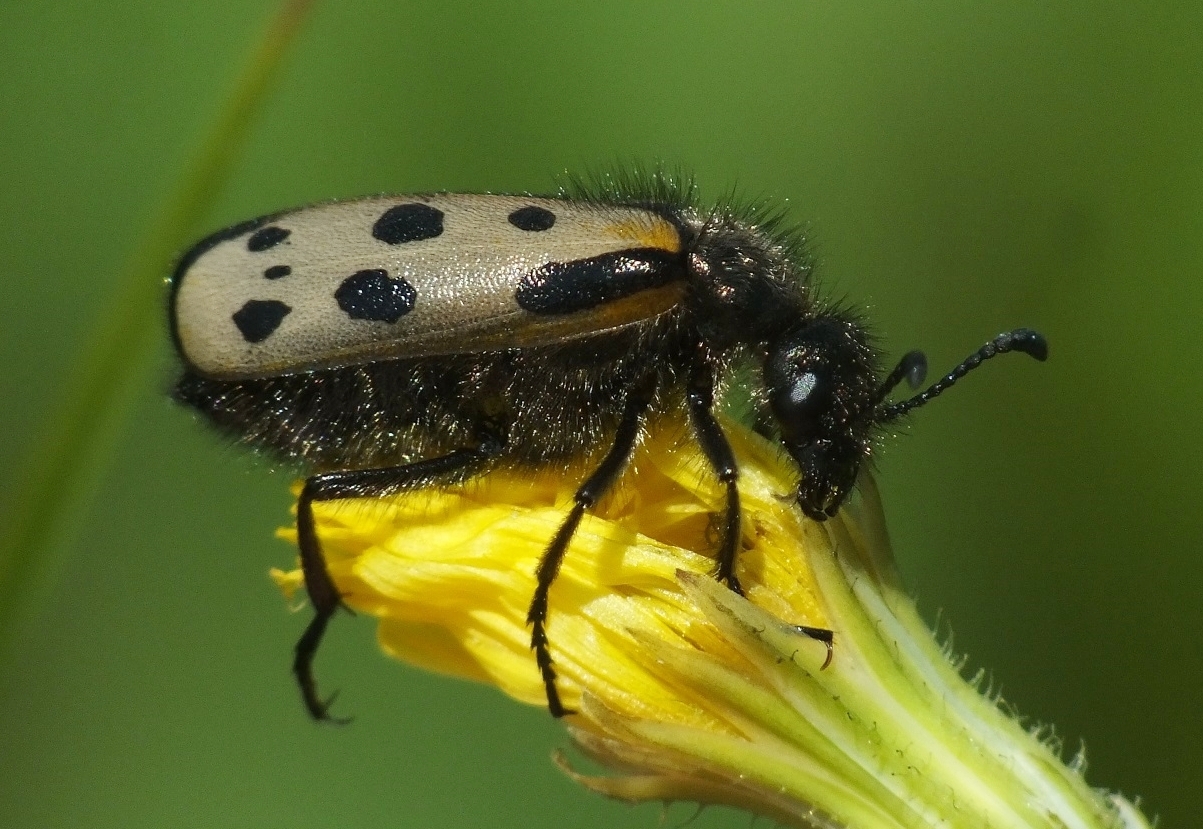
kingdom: Animalia
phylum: Arthropoda
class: Insecta
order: Coleoptera
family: Meloidae
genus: Hycleus
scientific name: Hycleus quatuordecimpunctatus
